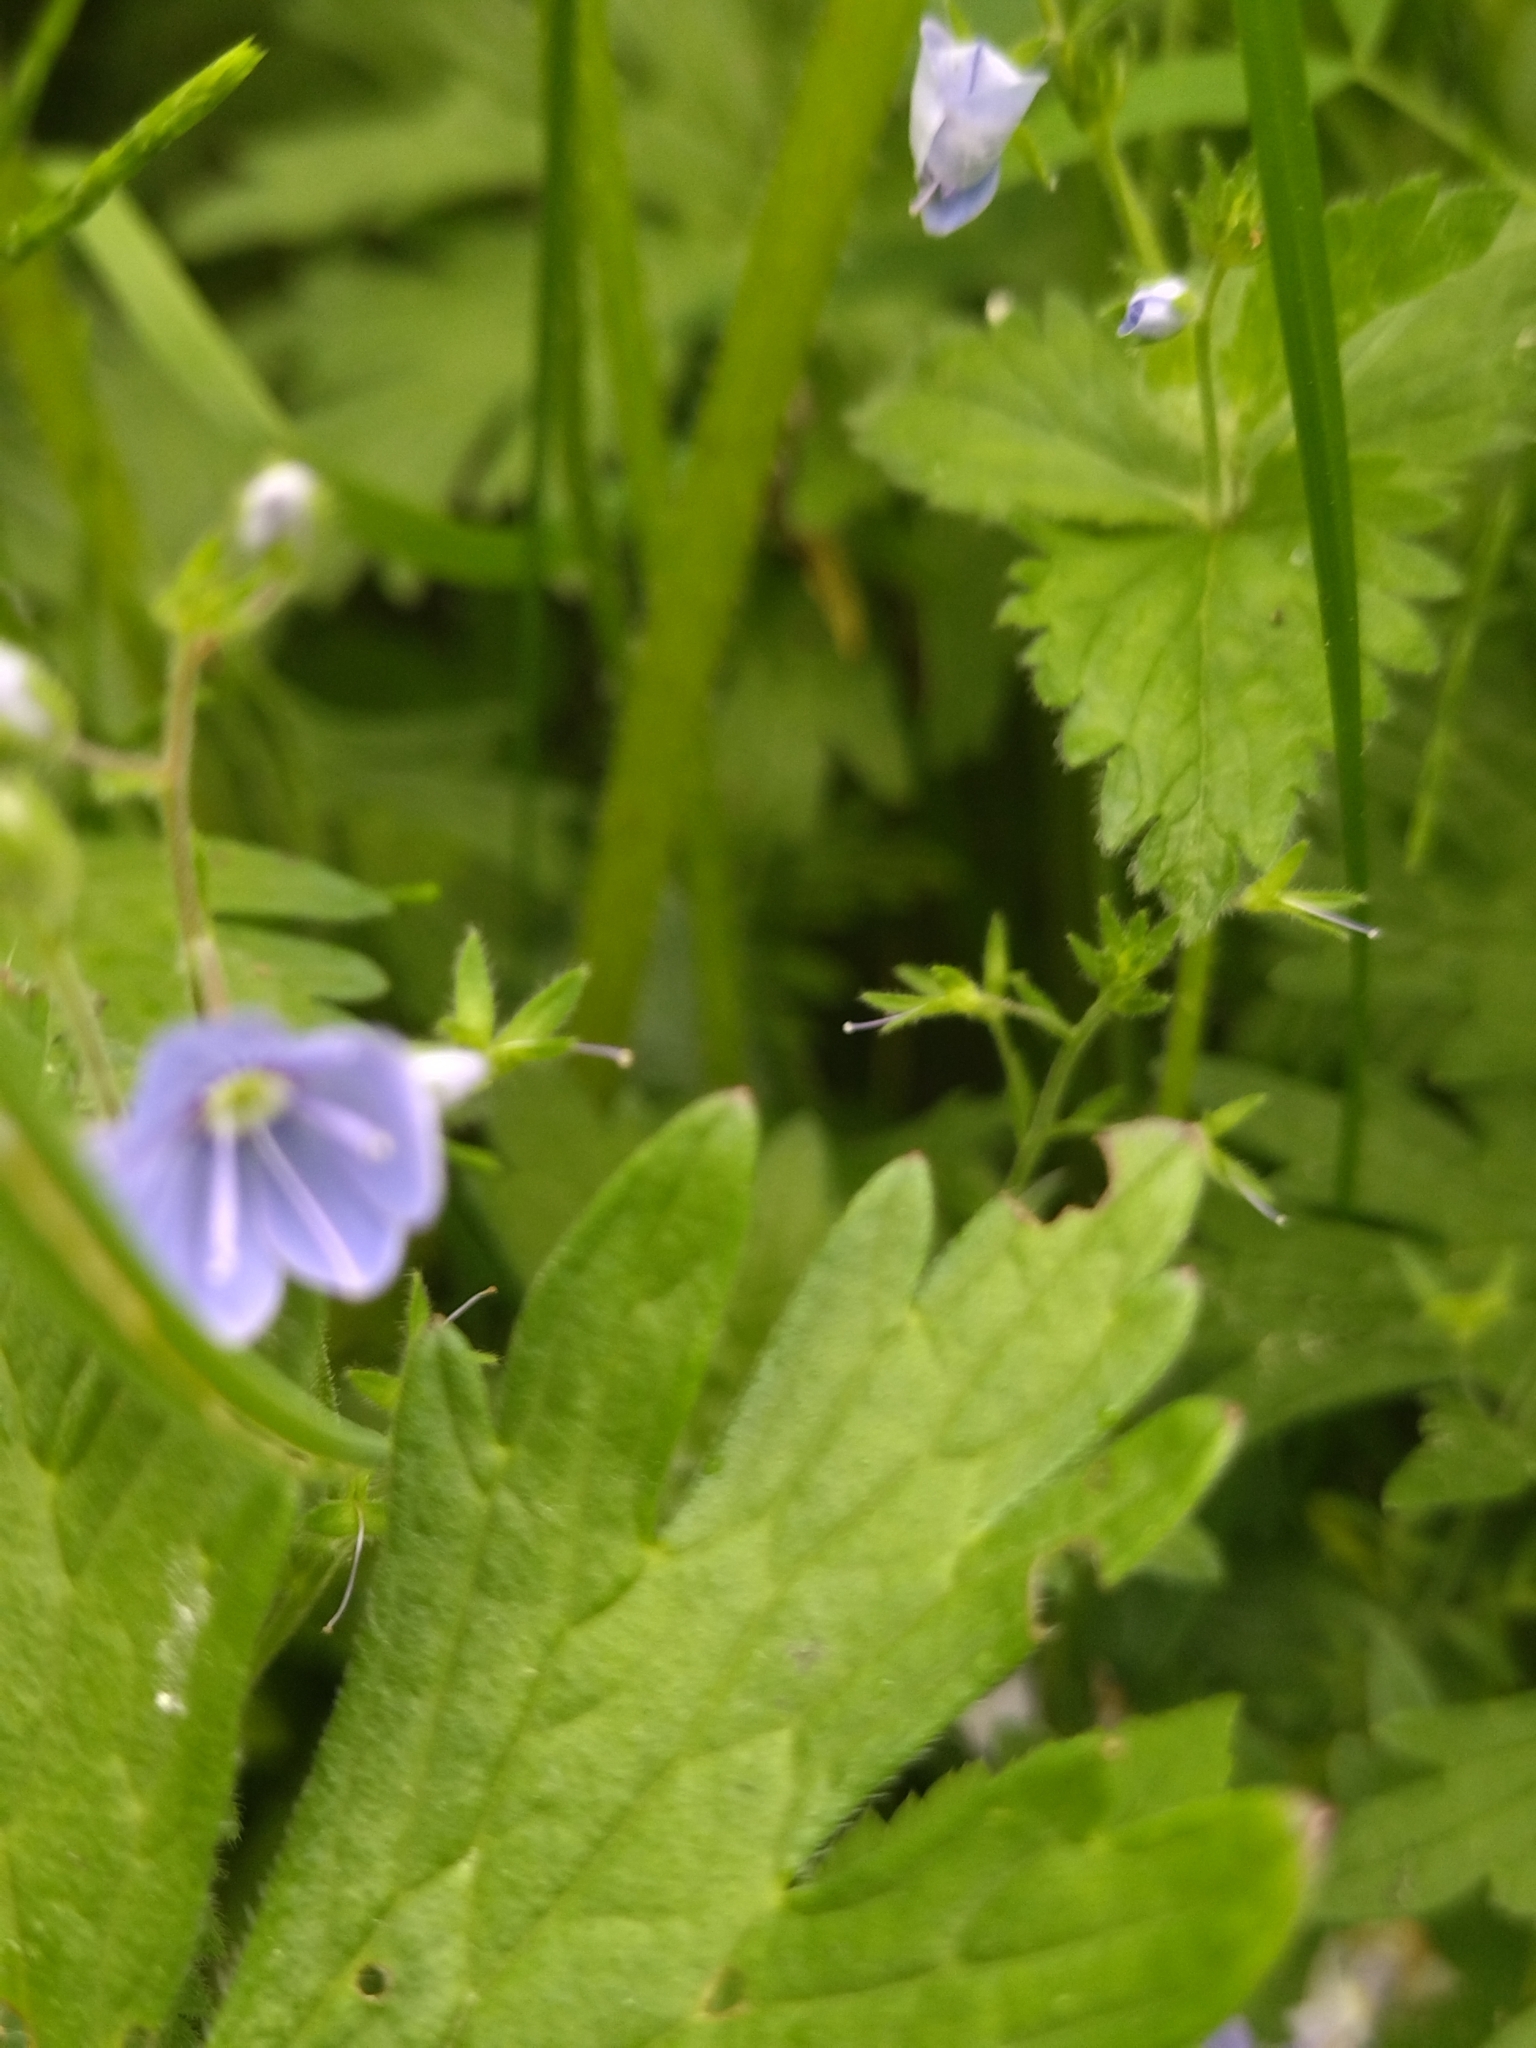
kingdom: Plantae
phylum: Tracheophyta
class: Magnoliopsida
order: Lamiales
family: Plantaginaceae
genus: Veronica
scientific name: Veronica chamaedrys
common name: Germander speedwell
